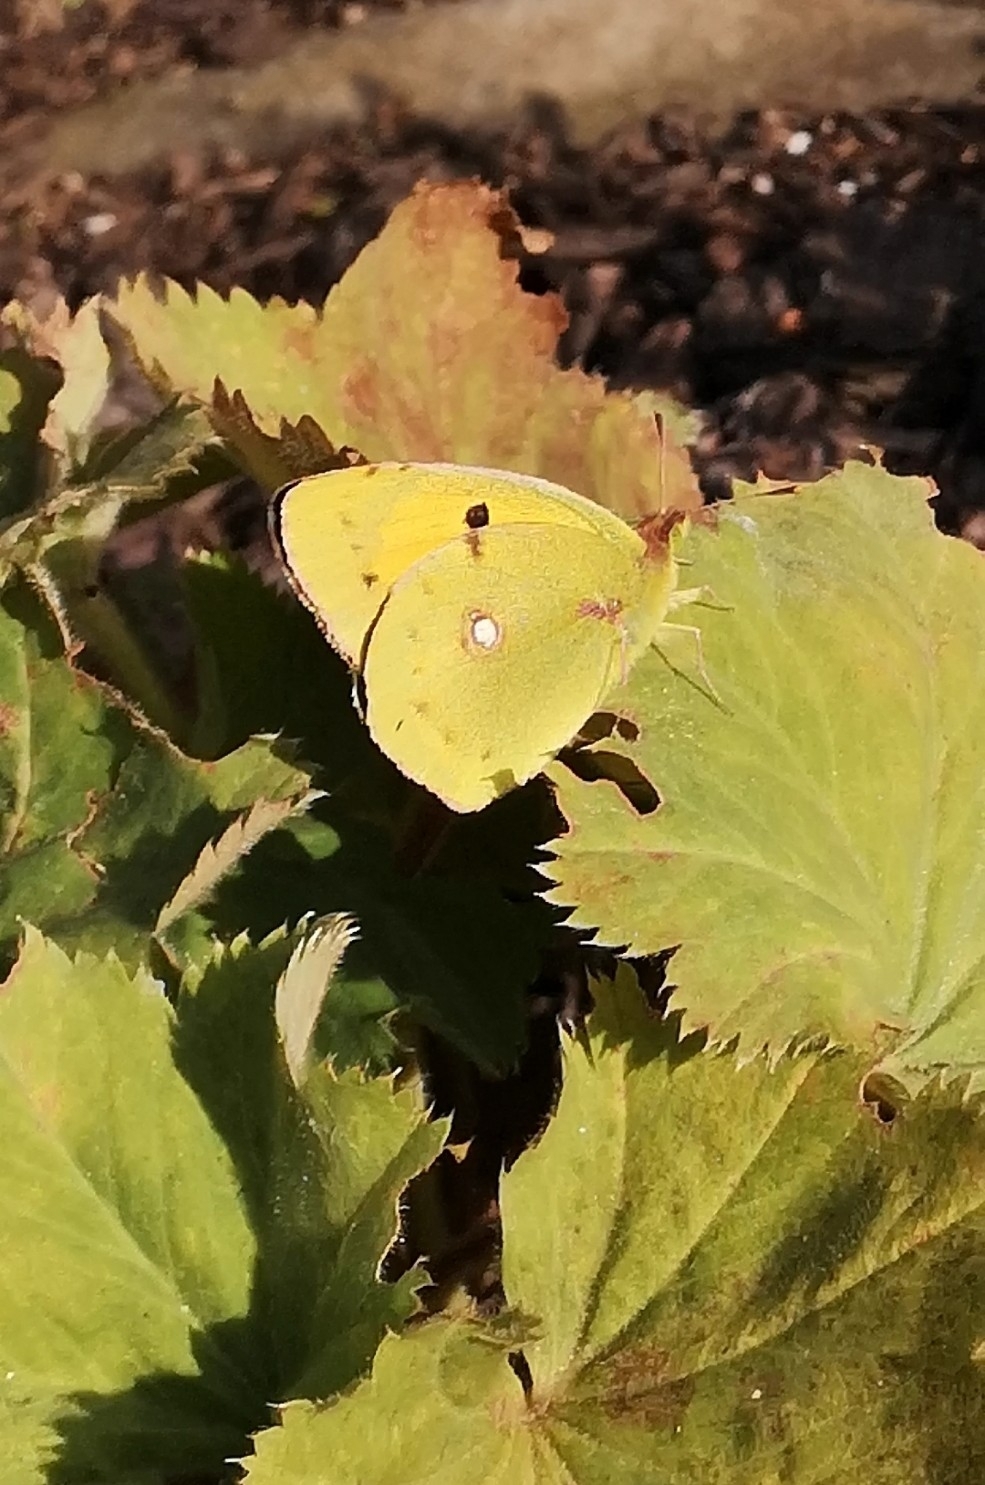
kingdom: Animalia
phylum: Arthropoda
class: Insecta
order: Lepidoptera
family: Pieridae
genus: Colias
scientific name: Colias croceus
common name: Clouded yellow
